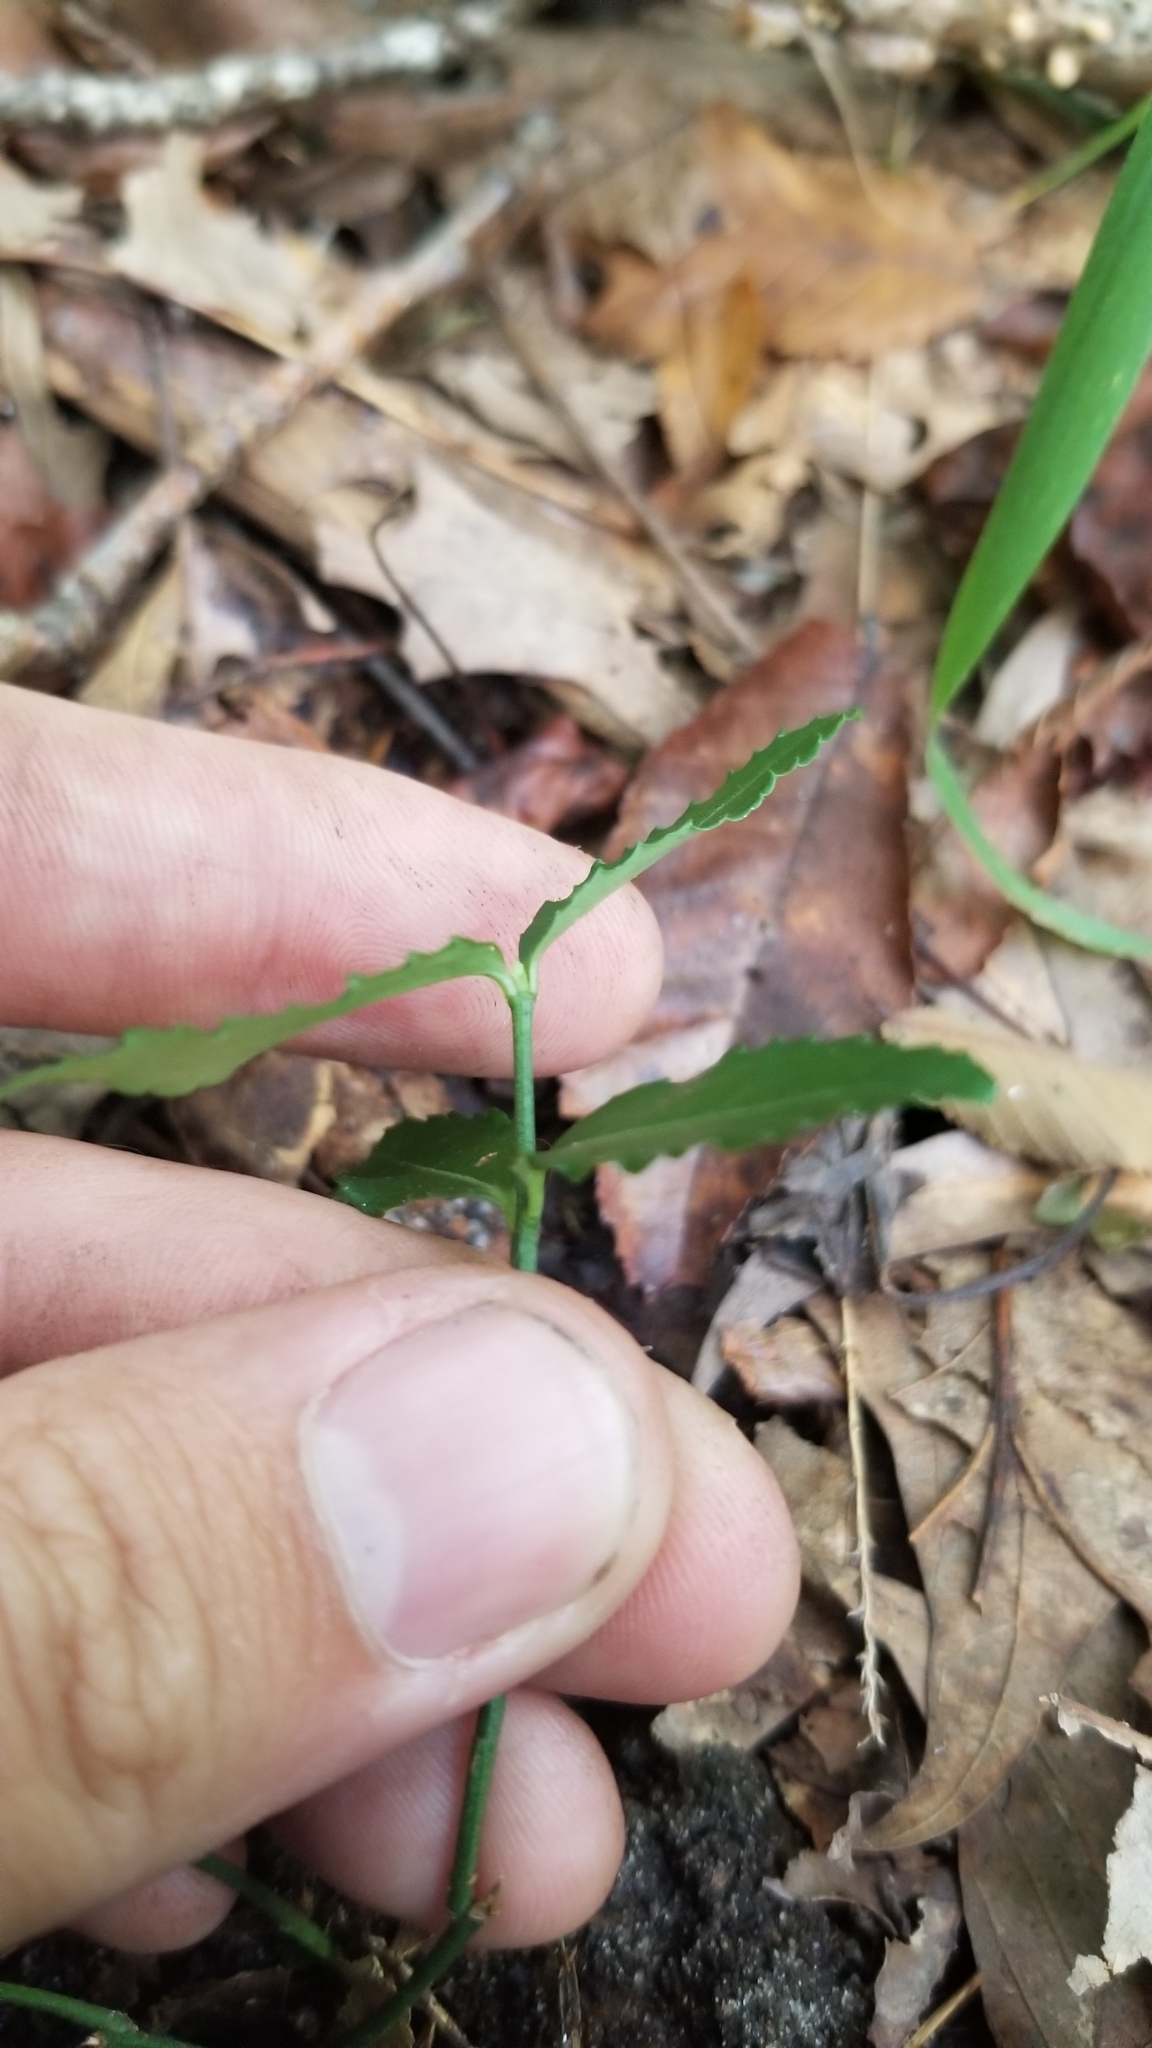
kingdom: Plantae
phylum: Tracheophyta
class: Magnoliopsida
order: Celastrales
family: Celastraceae
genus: Euonymus
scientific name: Euonymus americanus
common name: Bursting-heart
